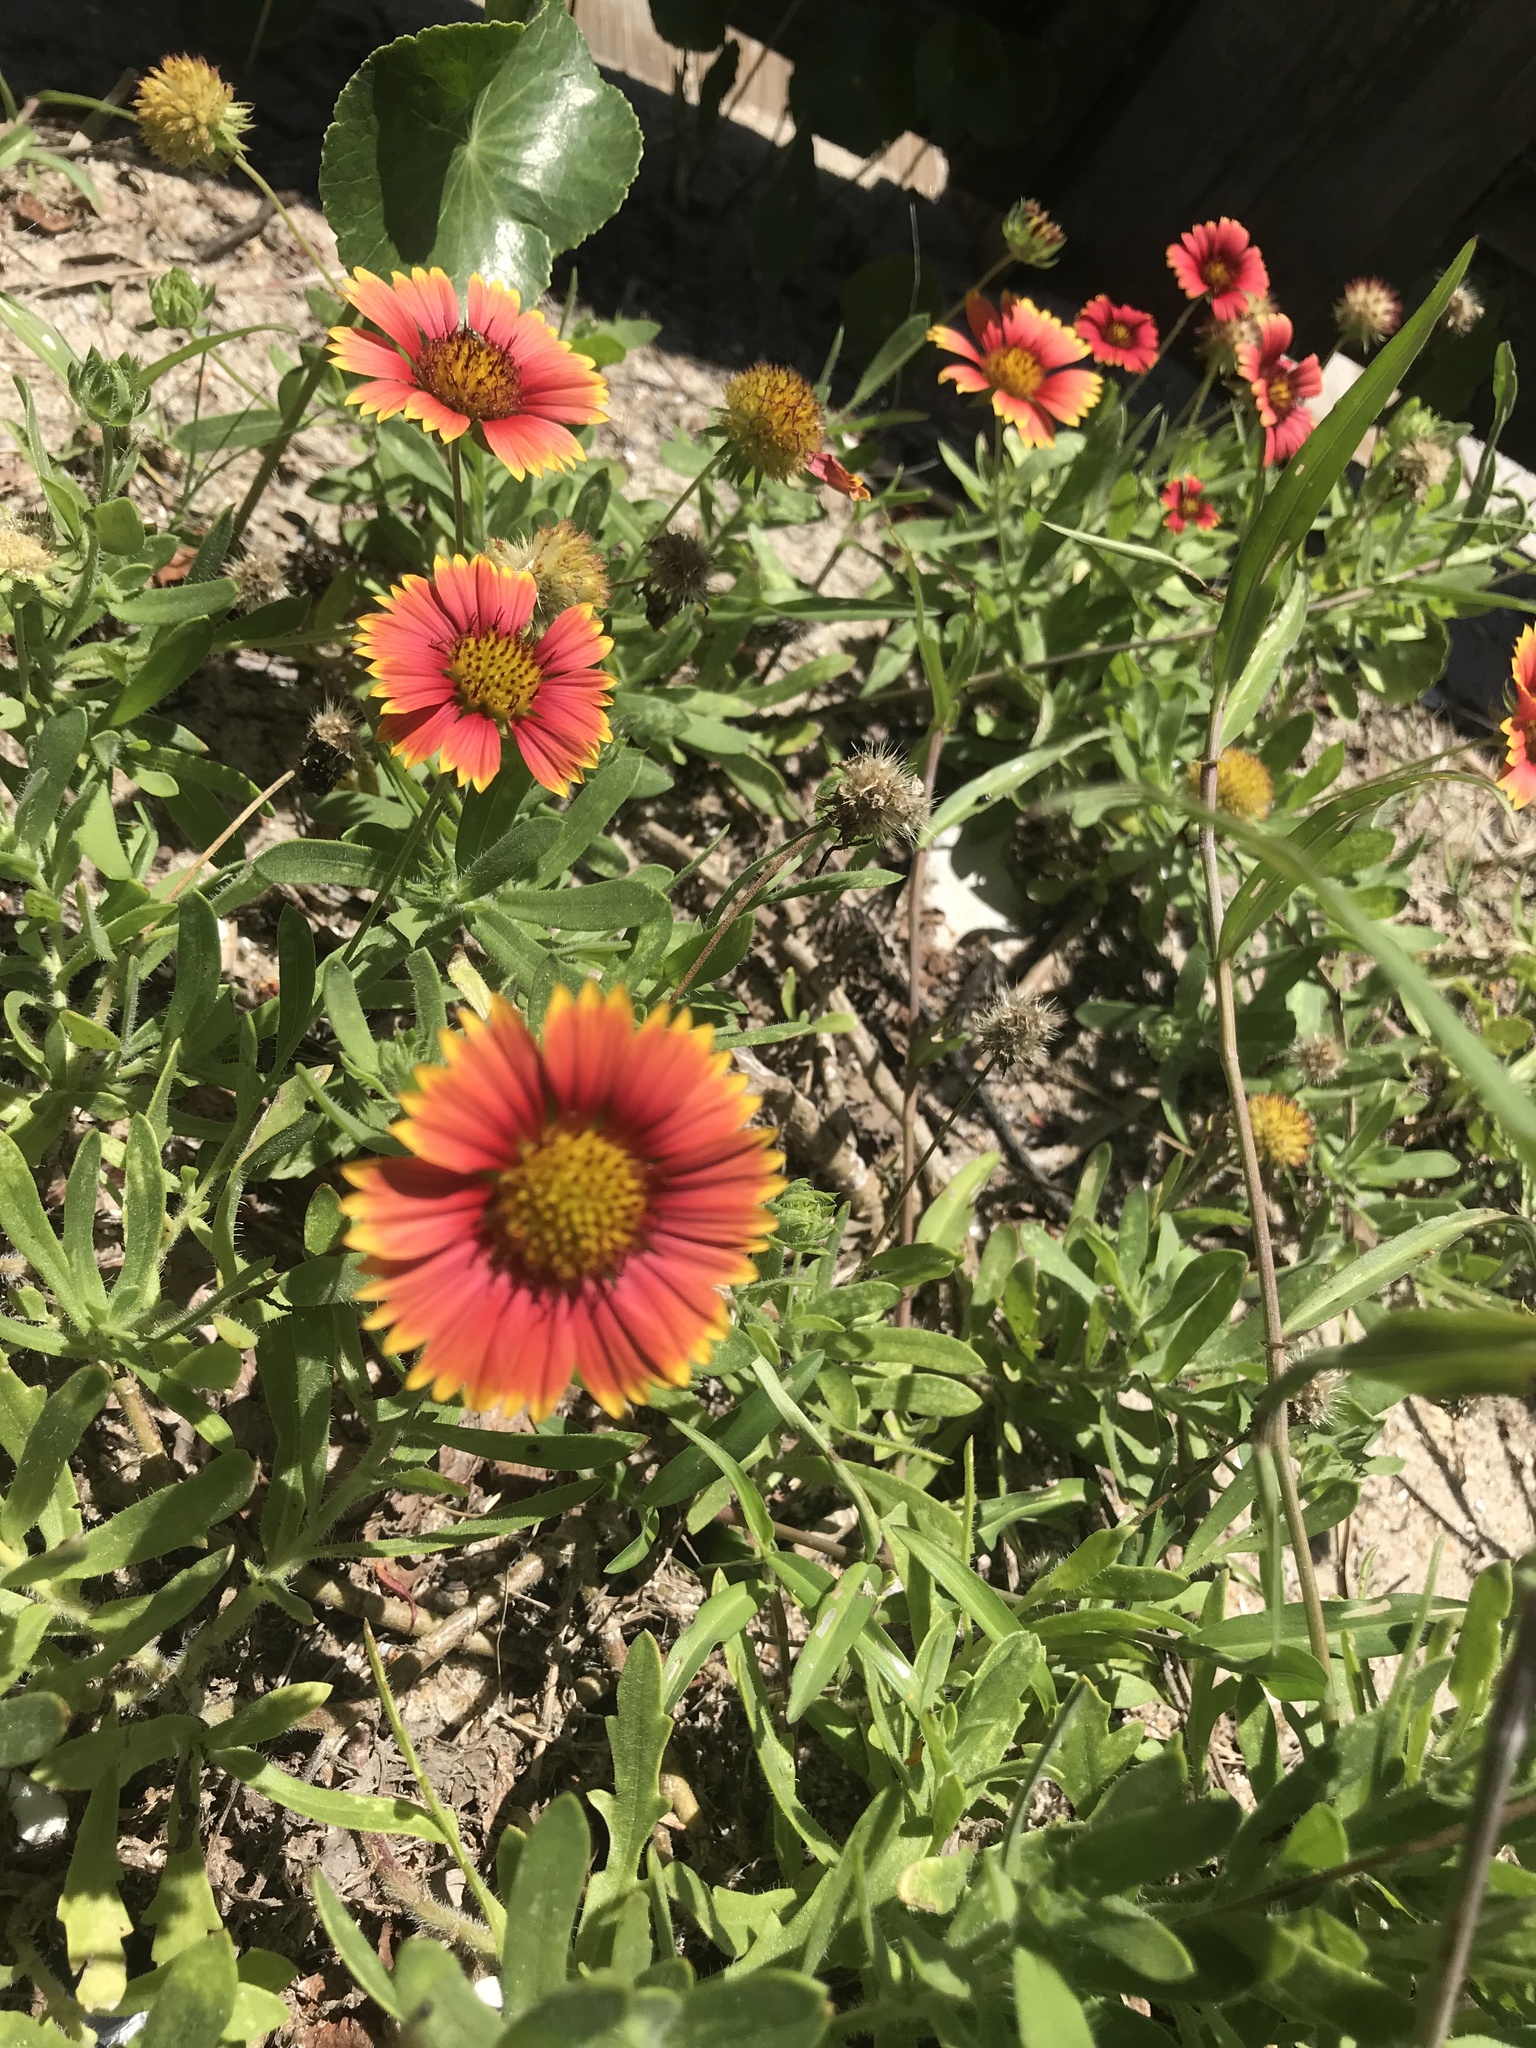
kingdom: Plantae
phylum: Tracheophyta
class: Magnoliopsida
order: Asterales
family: Asteraceae
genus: Gaillardia
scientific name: Gaillardia pulchella
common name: Firewheel
